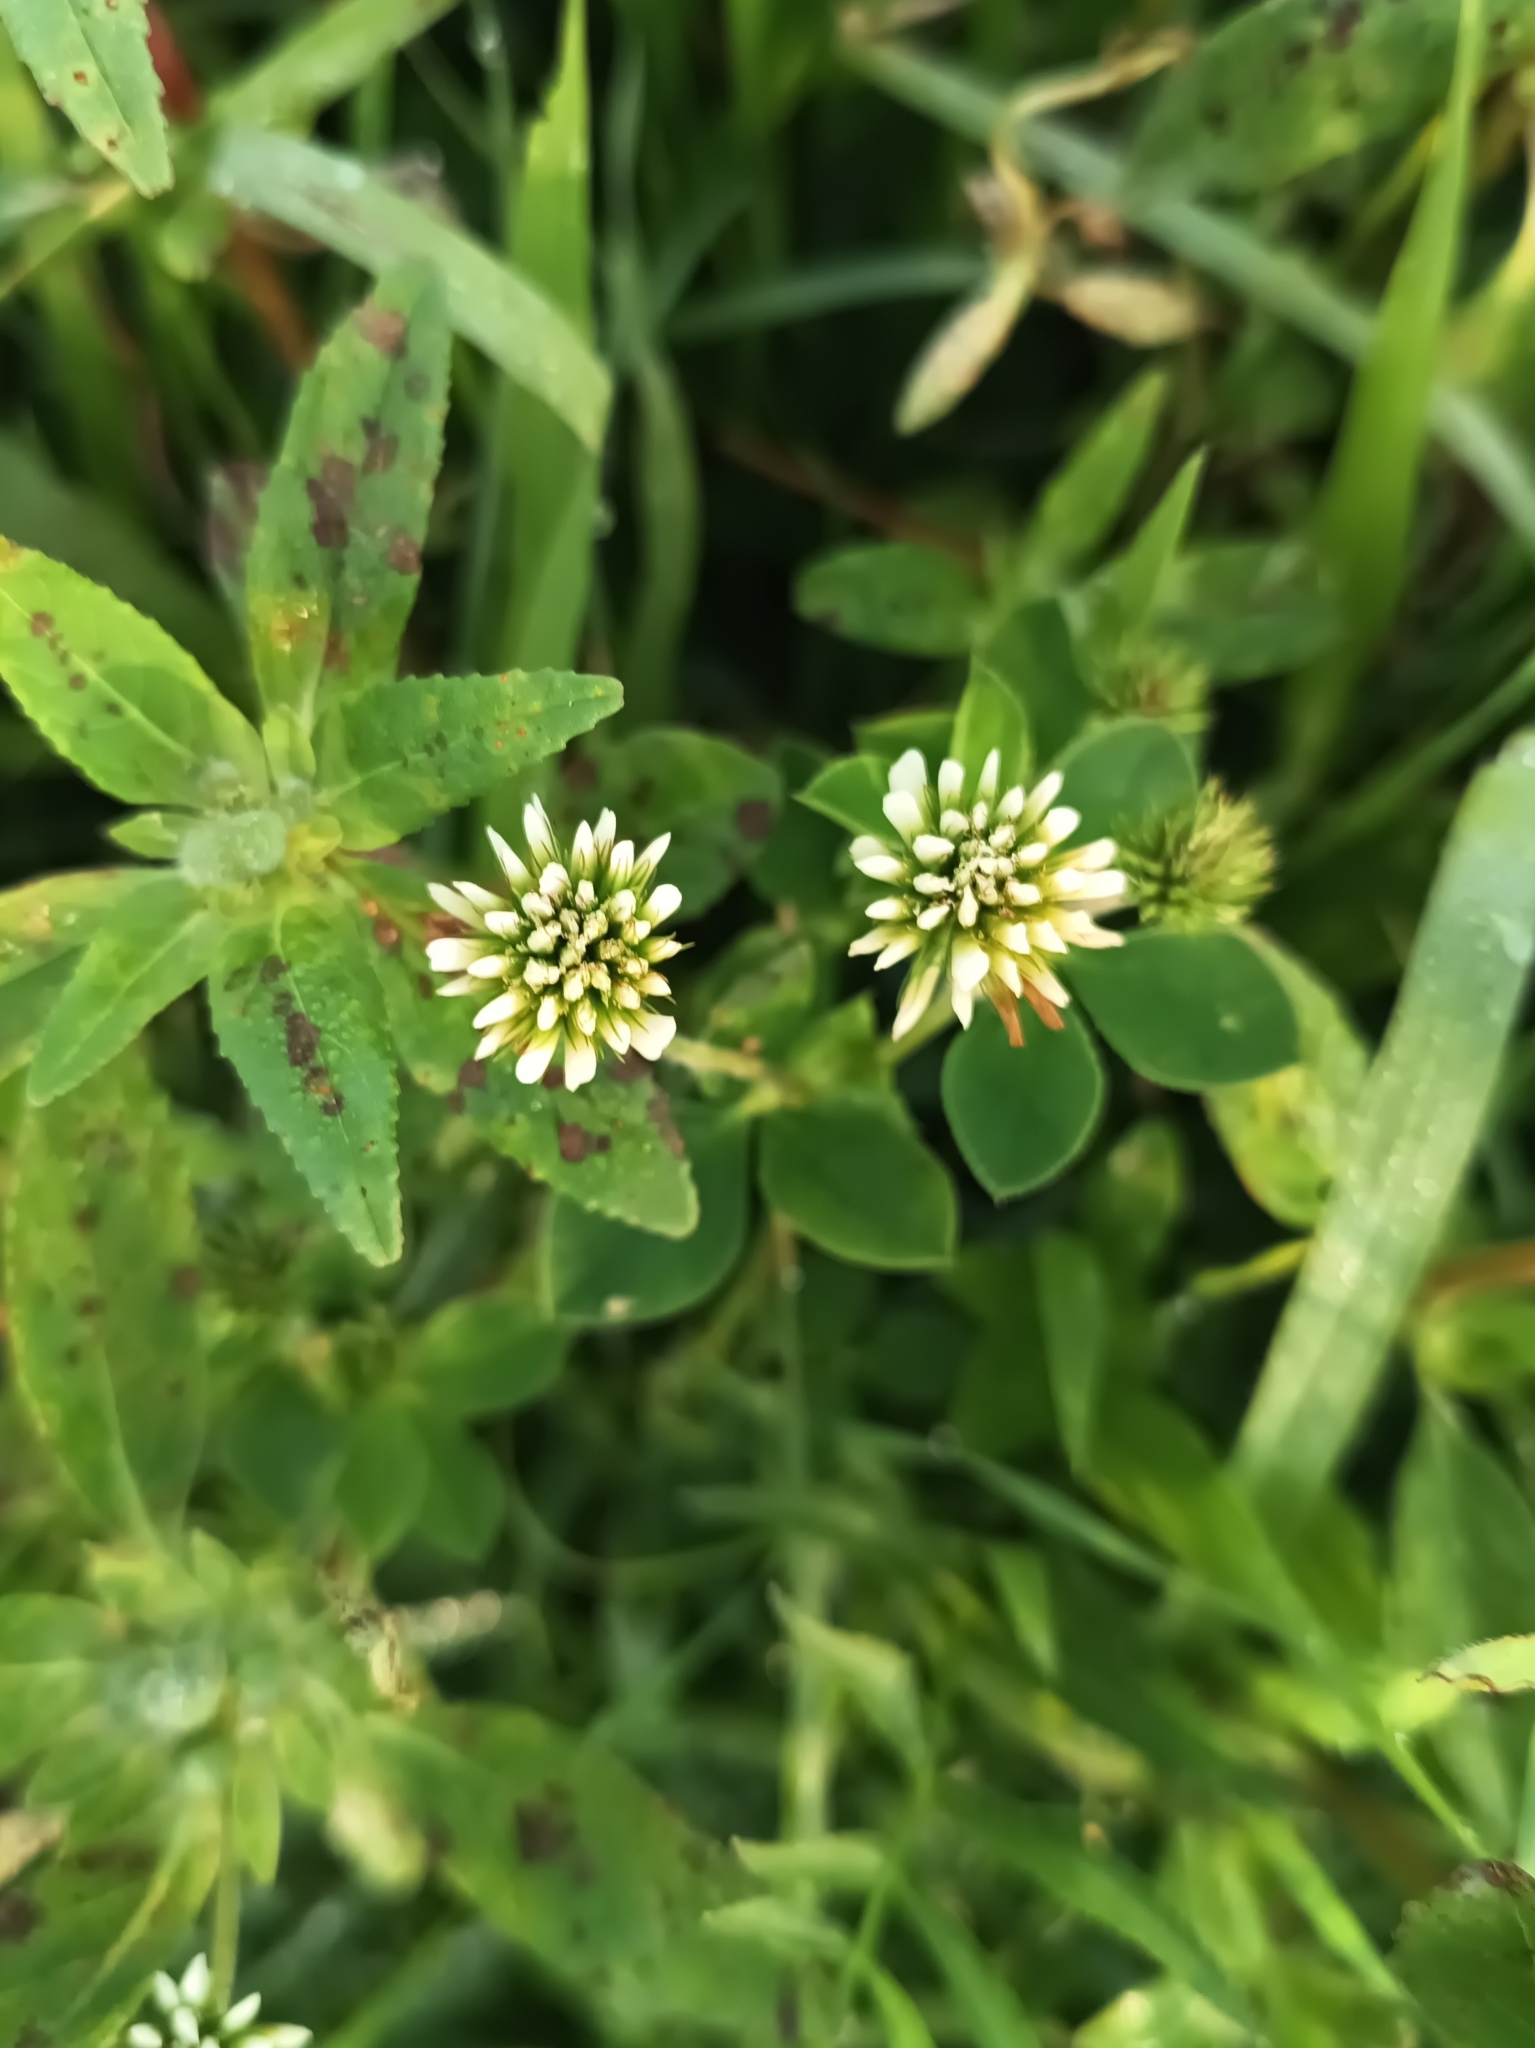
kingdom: Plantae
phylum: Tracheophyta
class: Magnoliopsida
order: Fabales
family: Fabaceae
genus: Trifolium
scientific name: Trifolium amabile
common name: Aztec clover
